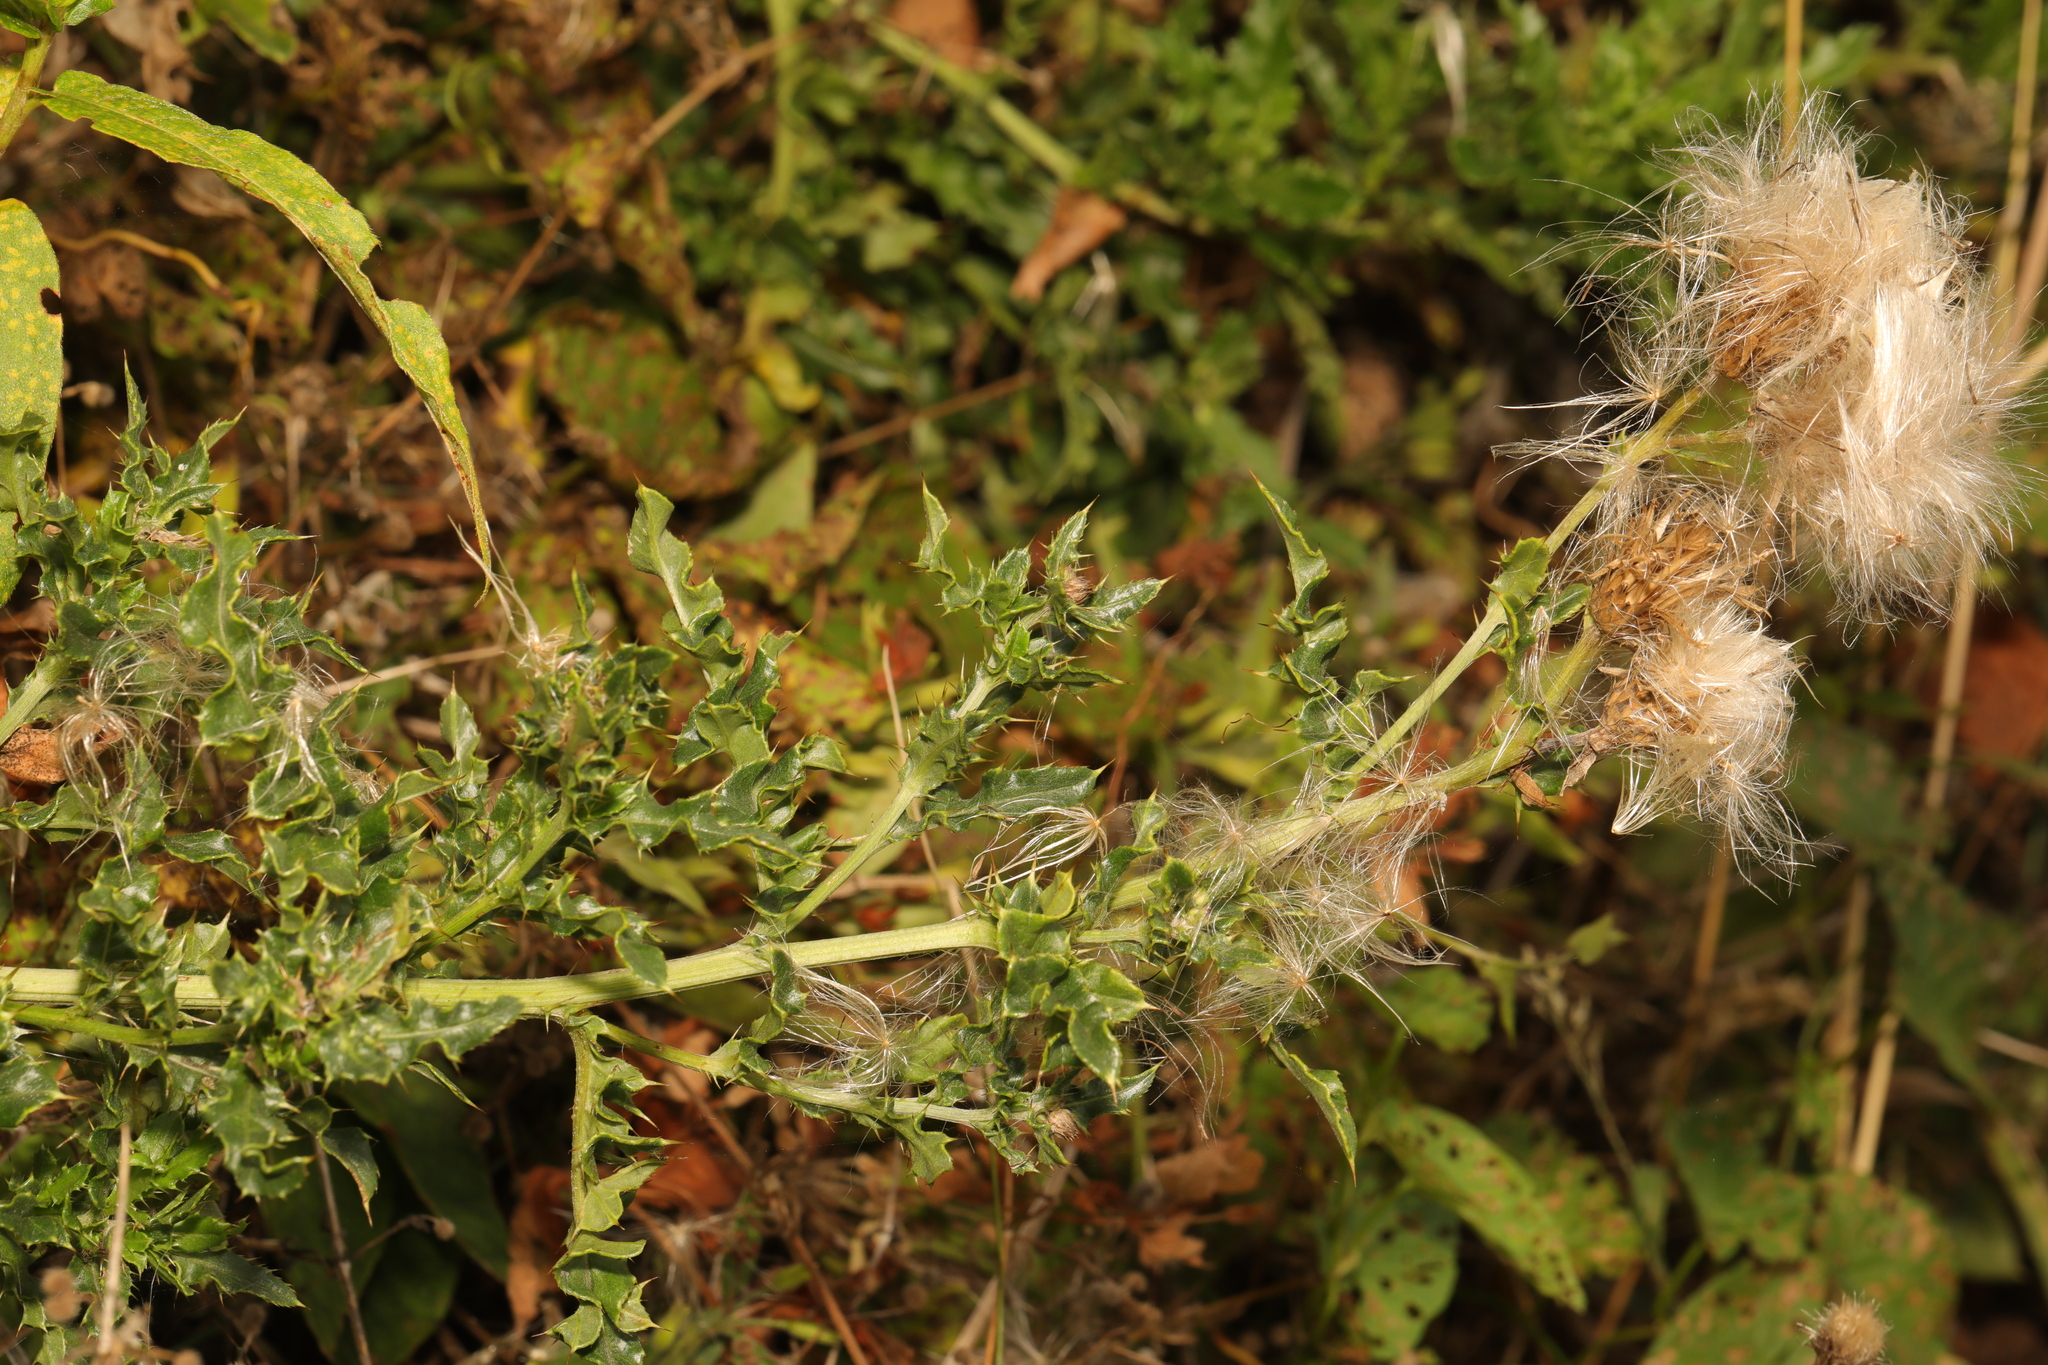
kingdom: Plantae
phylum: Tracheophyta
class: Magnoliopsida
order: Asterales
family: Asteraceae
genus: Cirsium
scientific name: Cirsium arvense
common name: Creeping thistle
